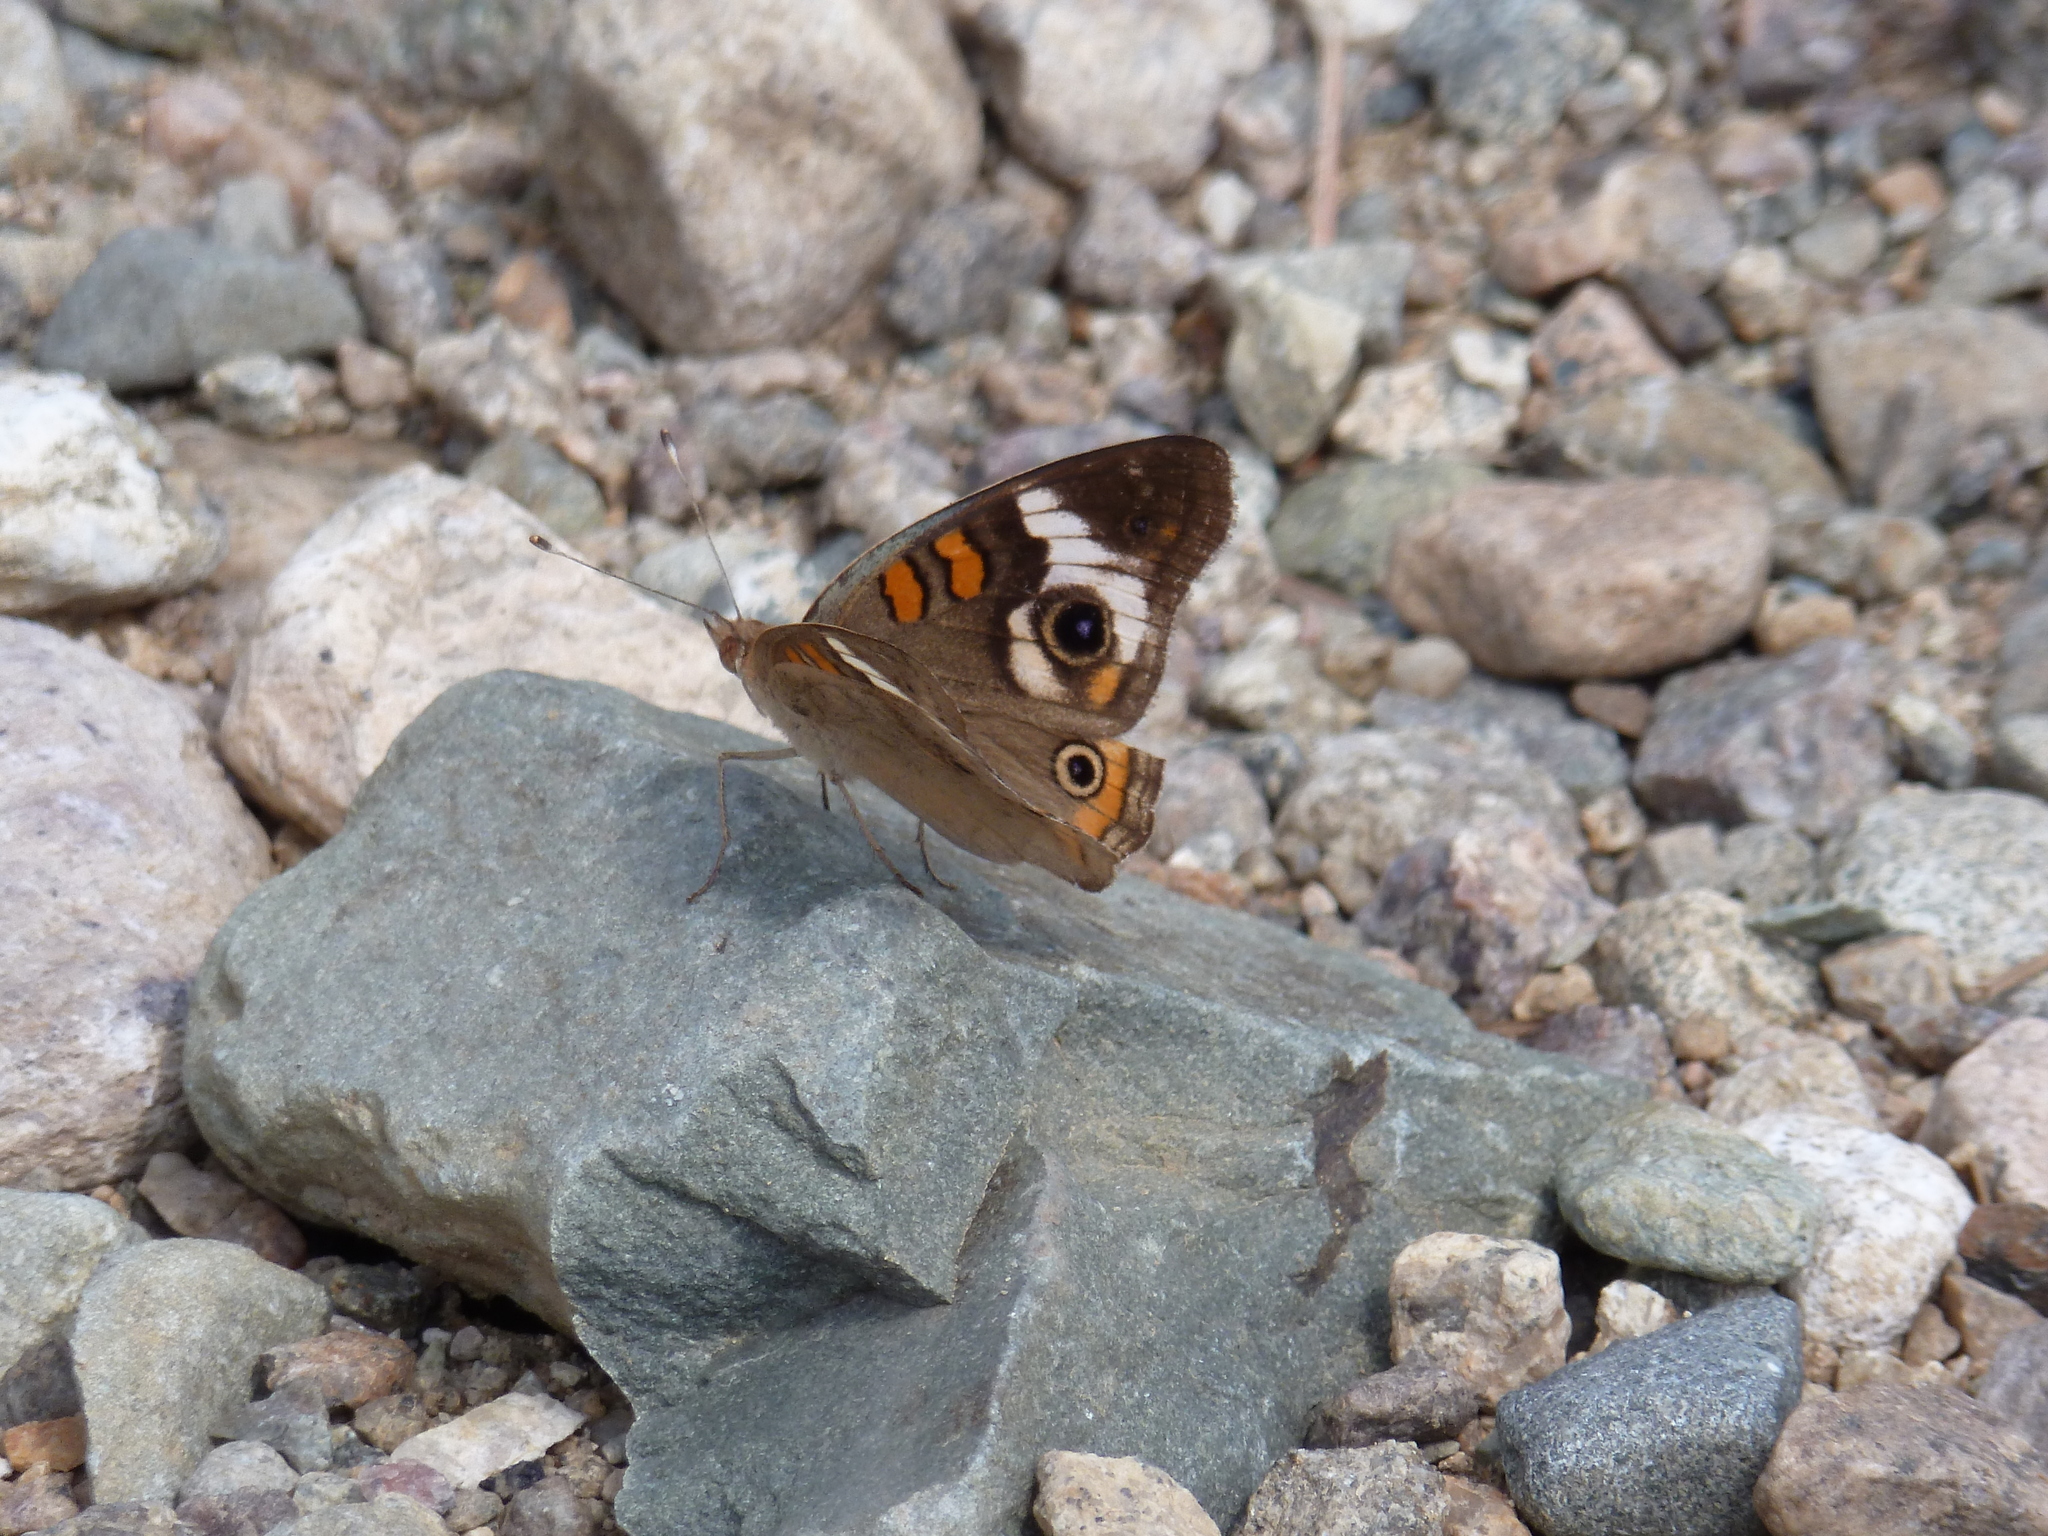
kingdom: Animalia
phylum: Arthropoda
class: Insecta
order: Lepidoptera
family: Nymphalidae
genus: Junonia
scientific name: Junonia coenia
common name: Common buckeye
